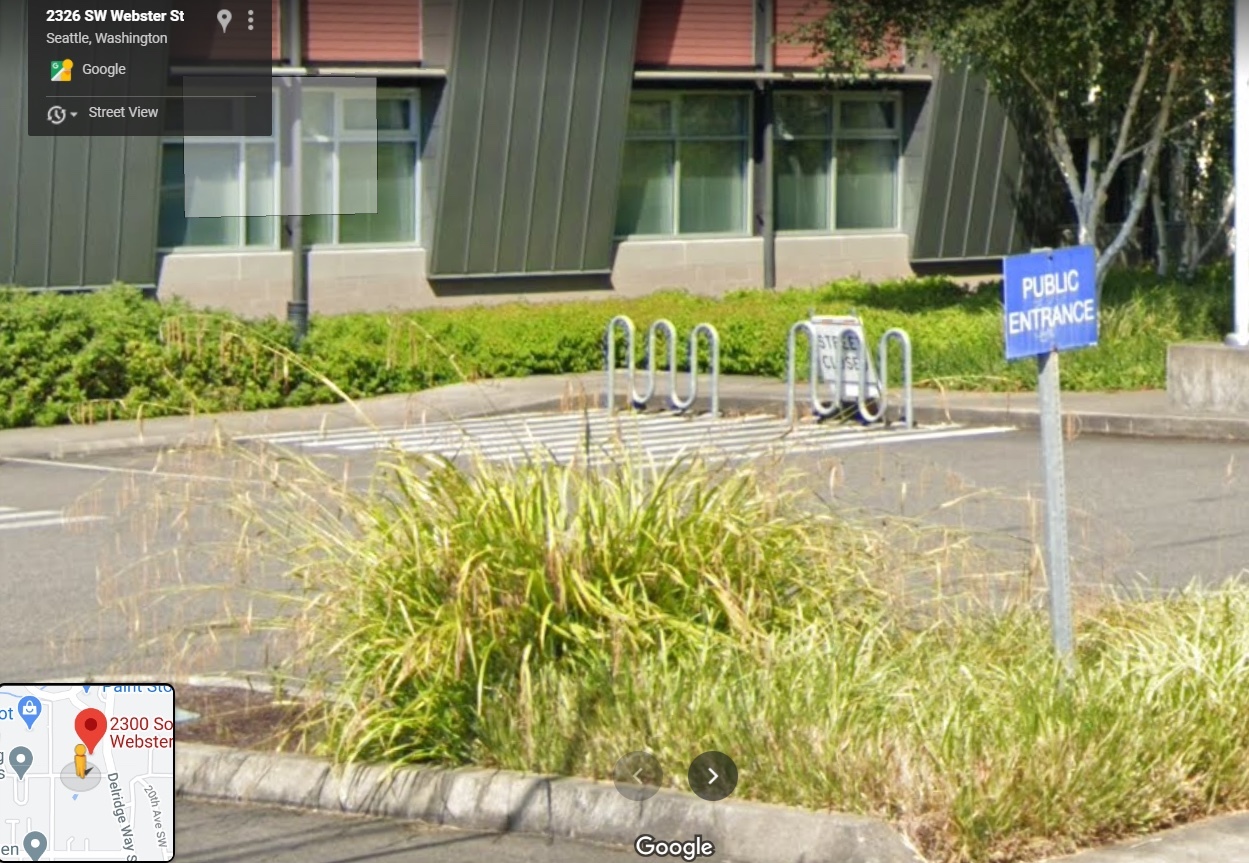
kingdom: Plantae
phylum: Tracheophyta
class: Liliopsida
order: Poales
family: Cyperaceae
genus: Carex
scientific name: Carex pendula
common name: Pendulous sedge
